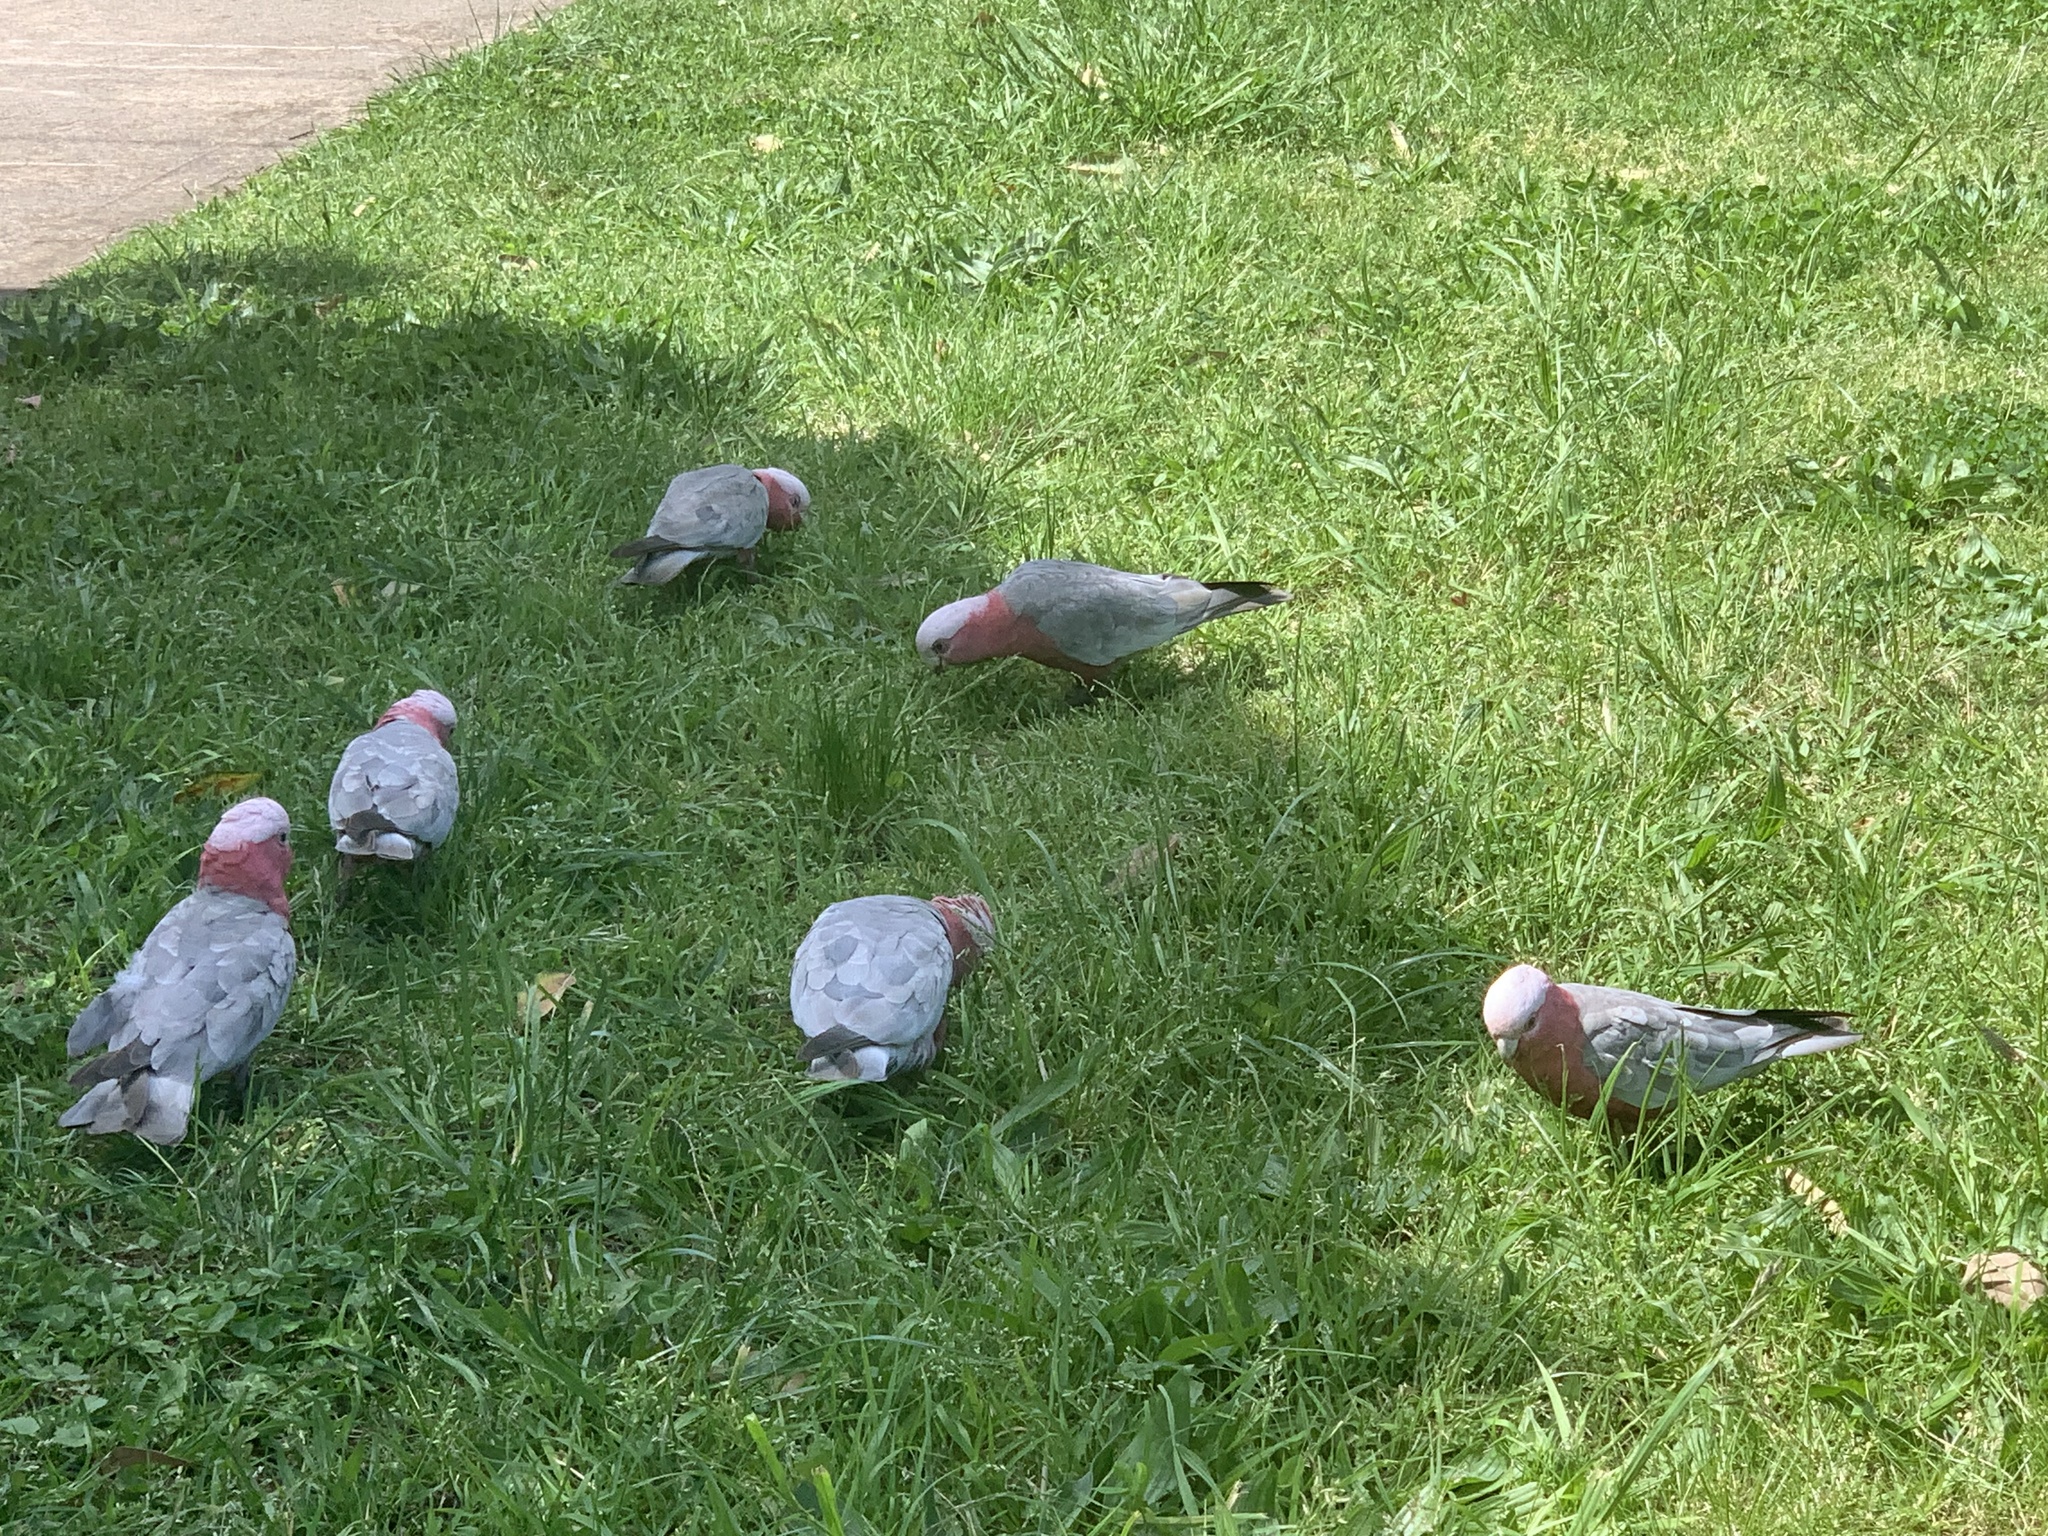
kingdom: Animalia
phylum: Chordata
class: Aves
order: Psittaciformes
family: Psittacidae
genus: Eolophus
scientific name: Eolophus roseicapilla
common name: Galah
